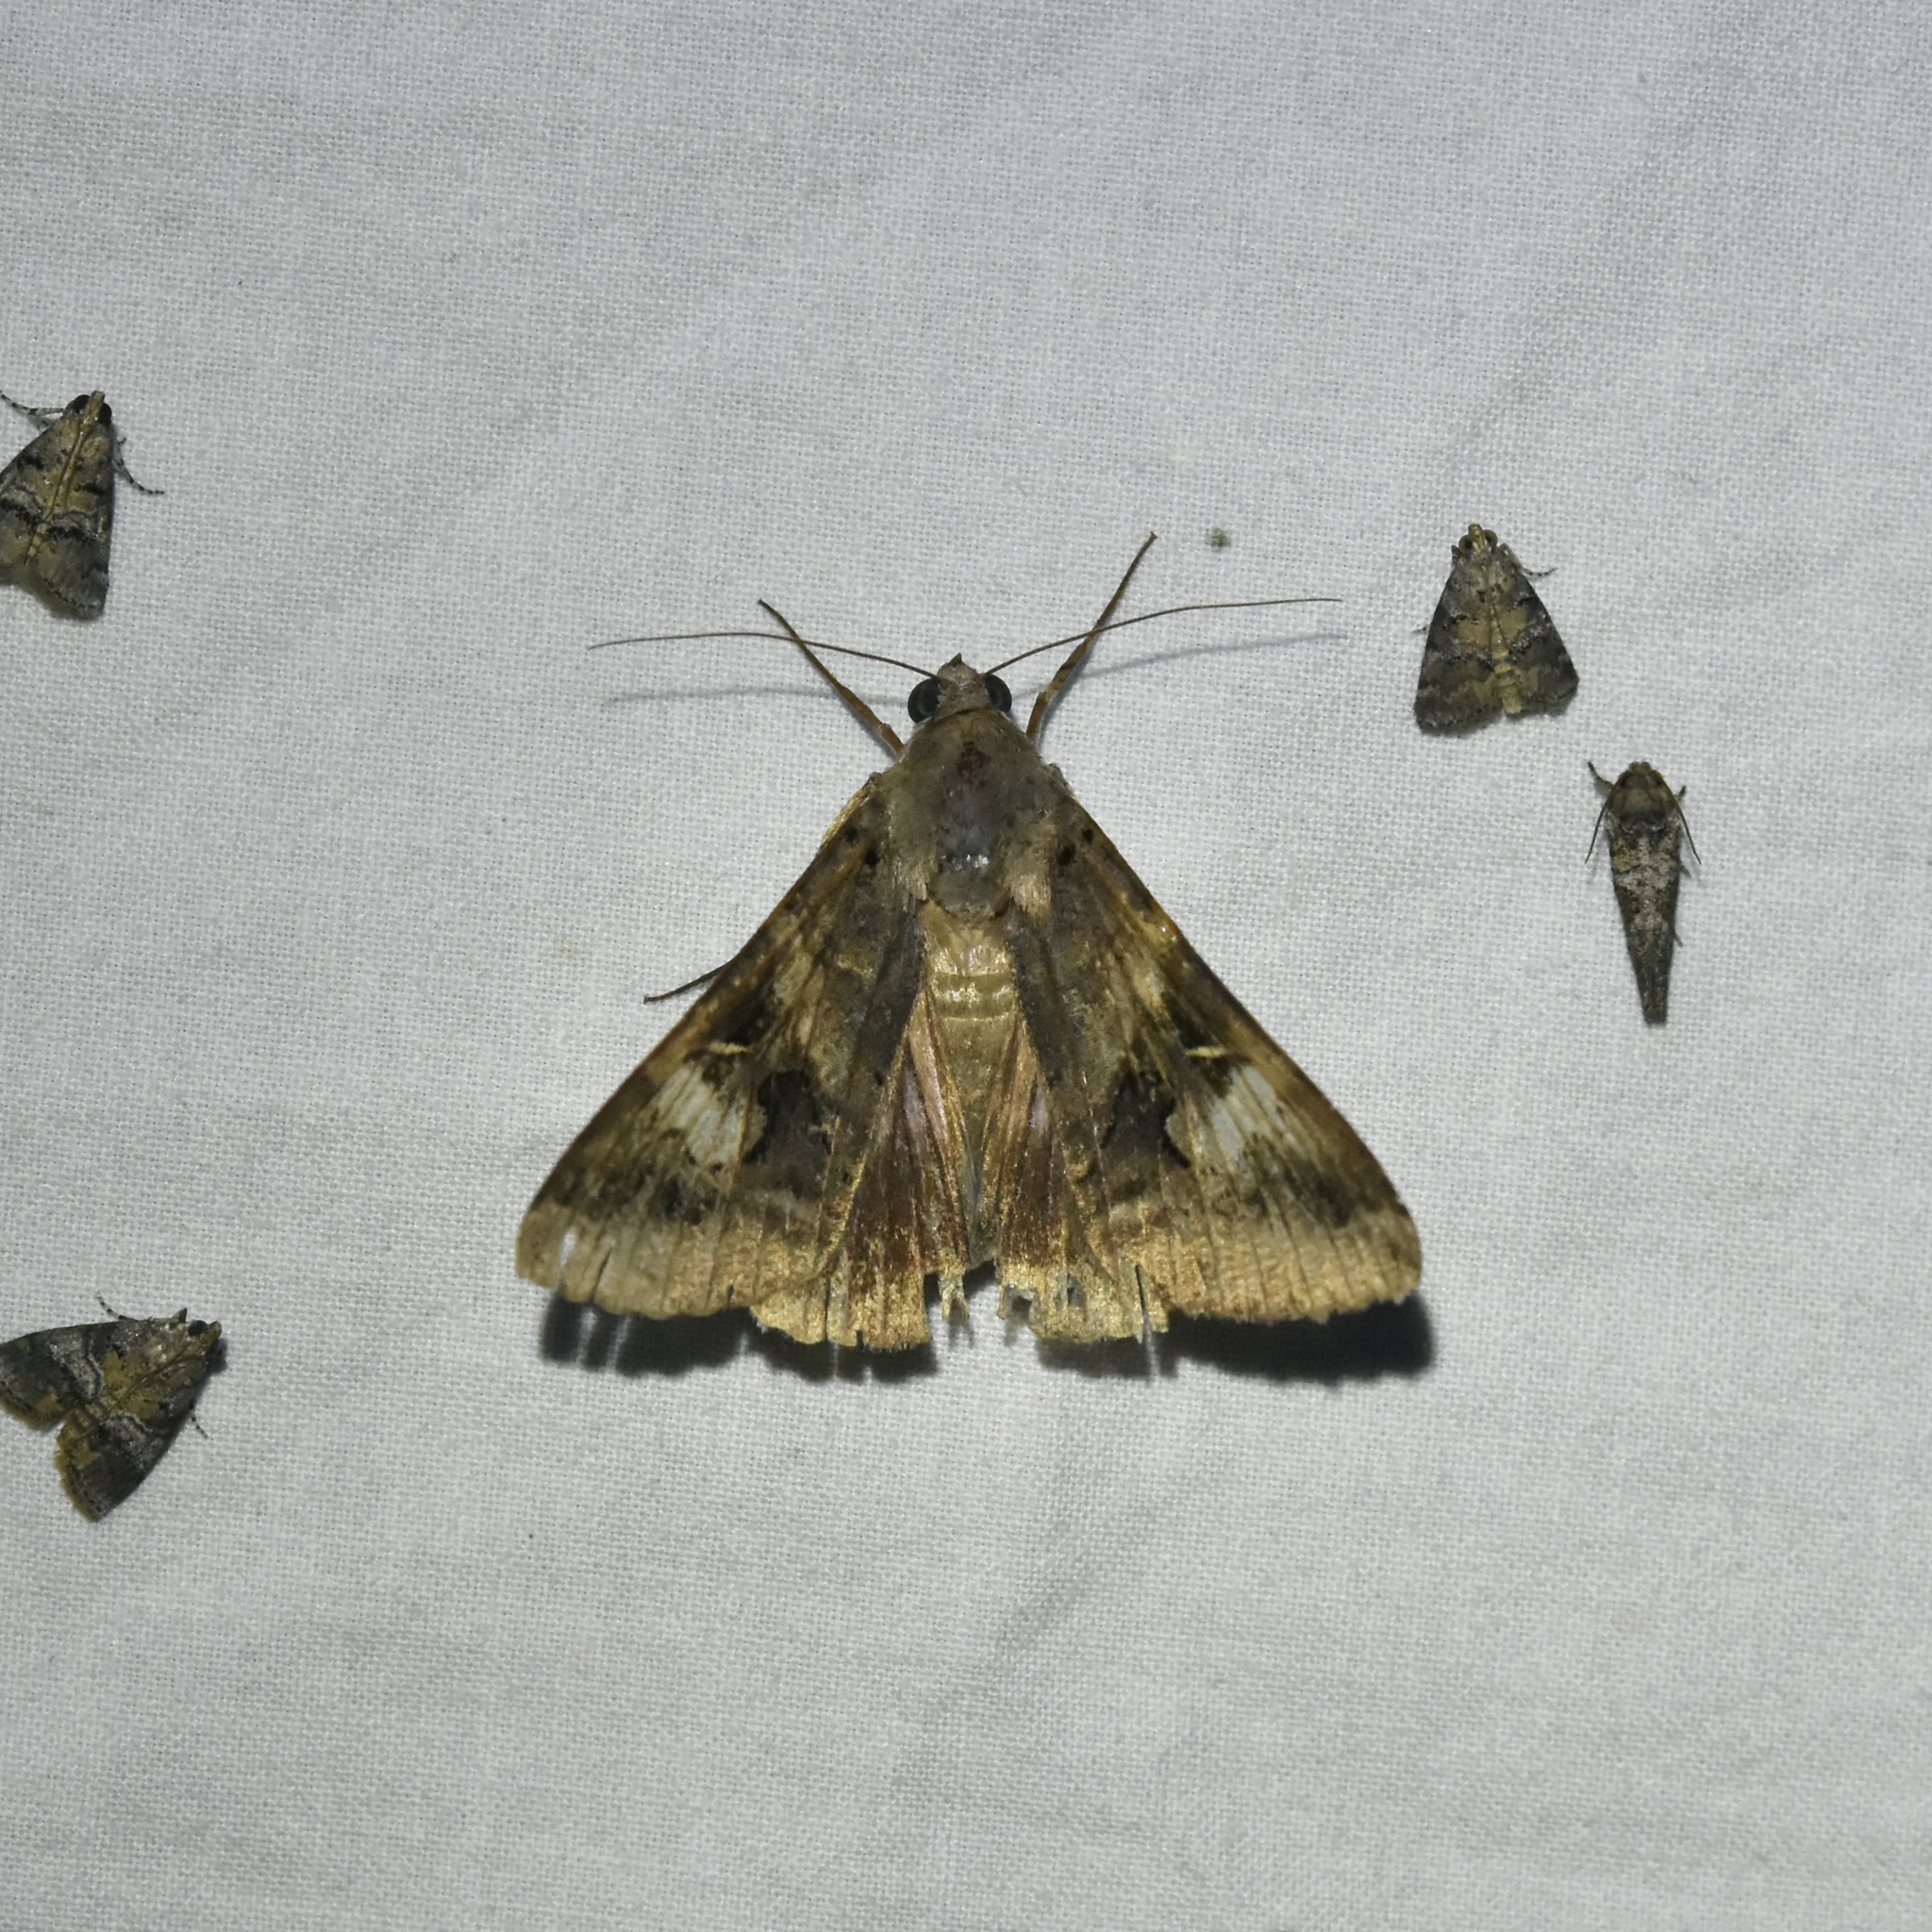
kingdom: Animalia
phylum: Arthropoda
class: Insecta
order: Lepidoptera
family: Erebidae
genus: Melipotis
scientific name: Melipotis indomita
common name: Moth
